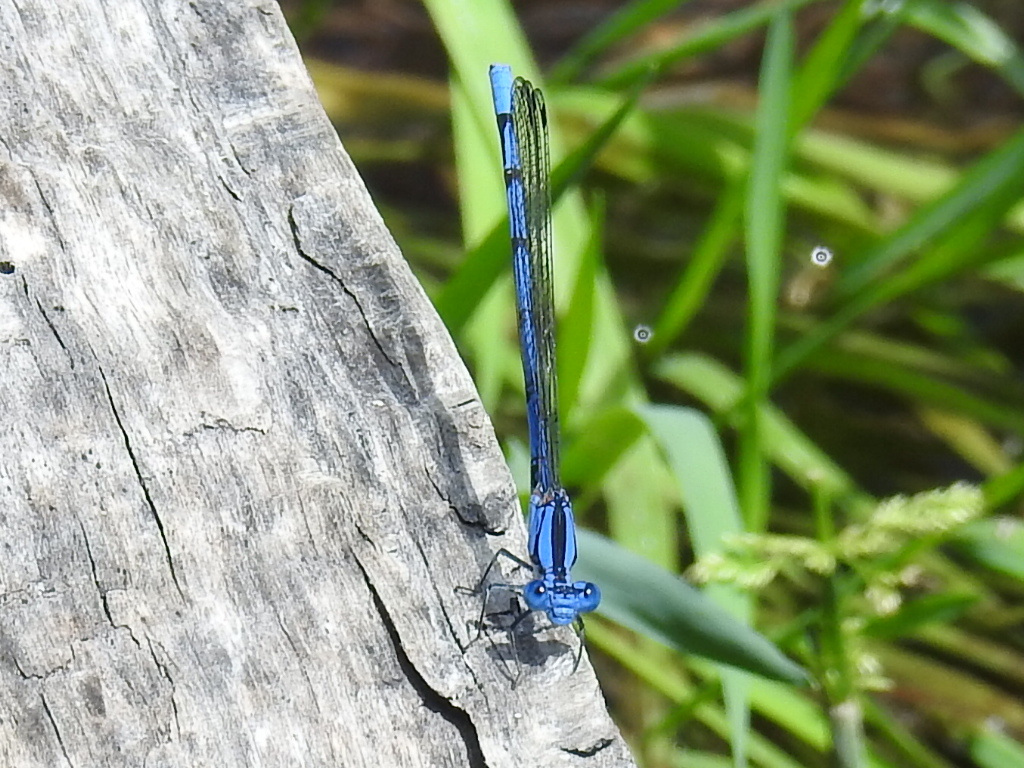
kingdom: Animalia
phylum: Arthropoda
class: Insecta
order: Odonata
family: Coenagrionidae
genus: Argia
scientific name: Argia lacrimans
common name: Sierra madre dancer
